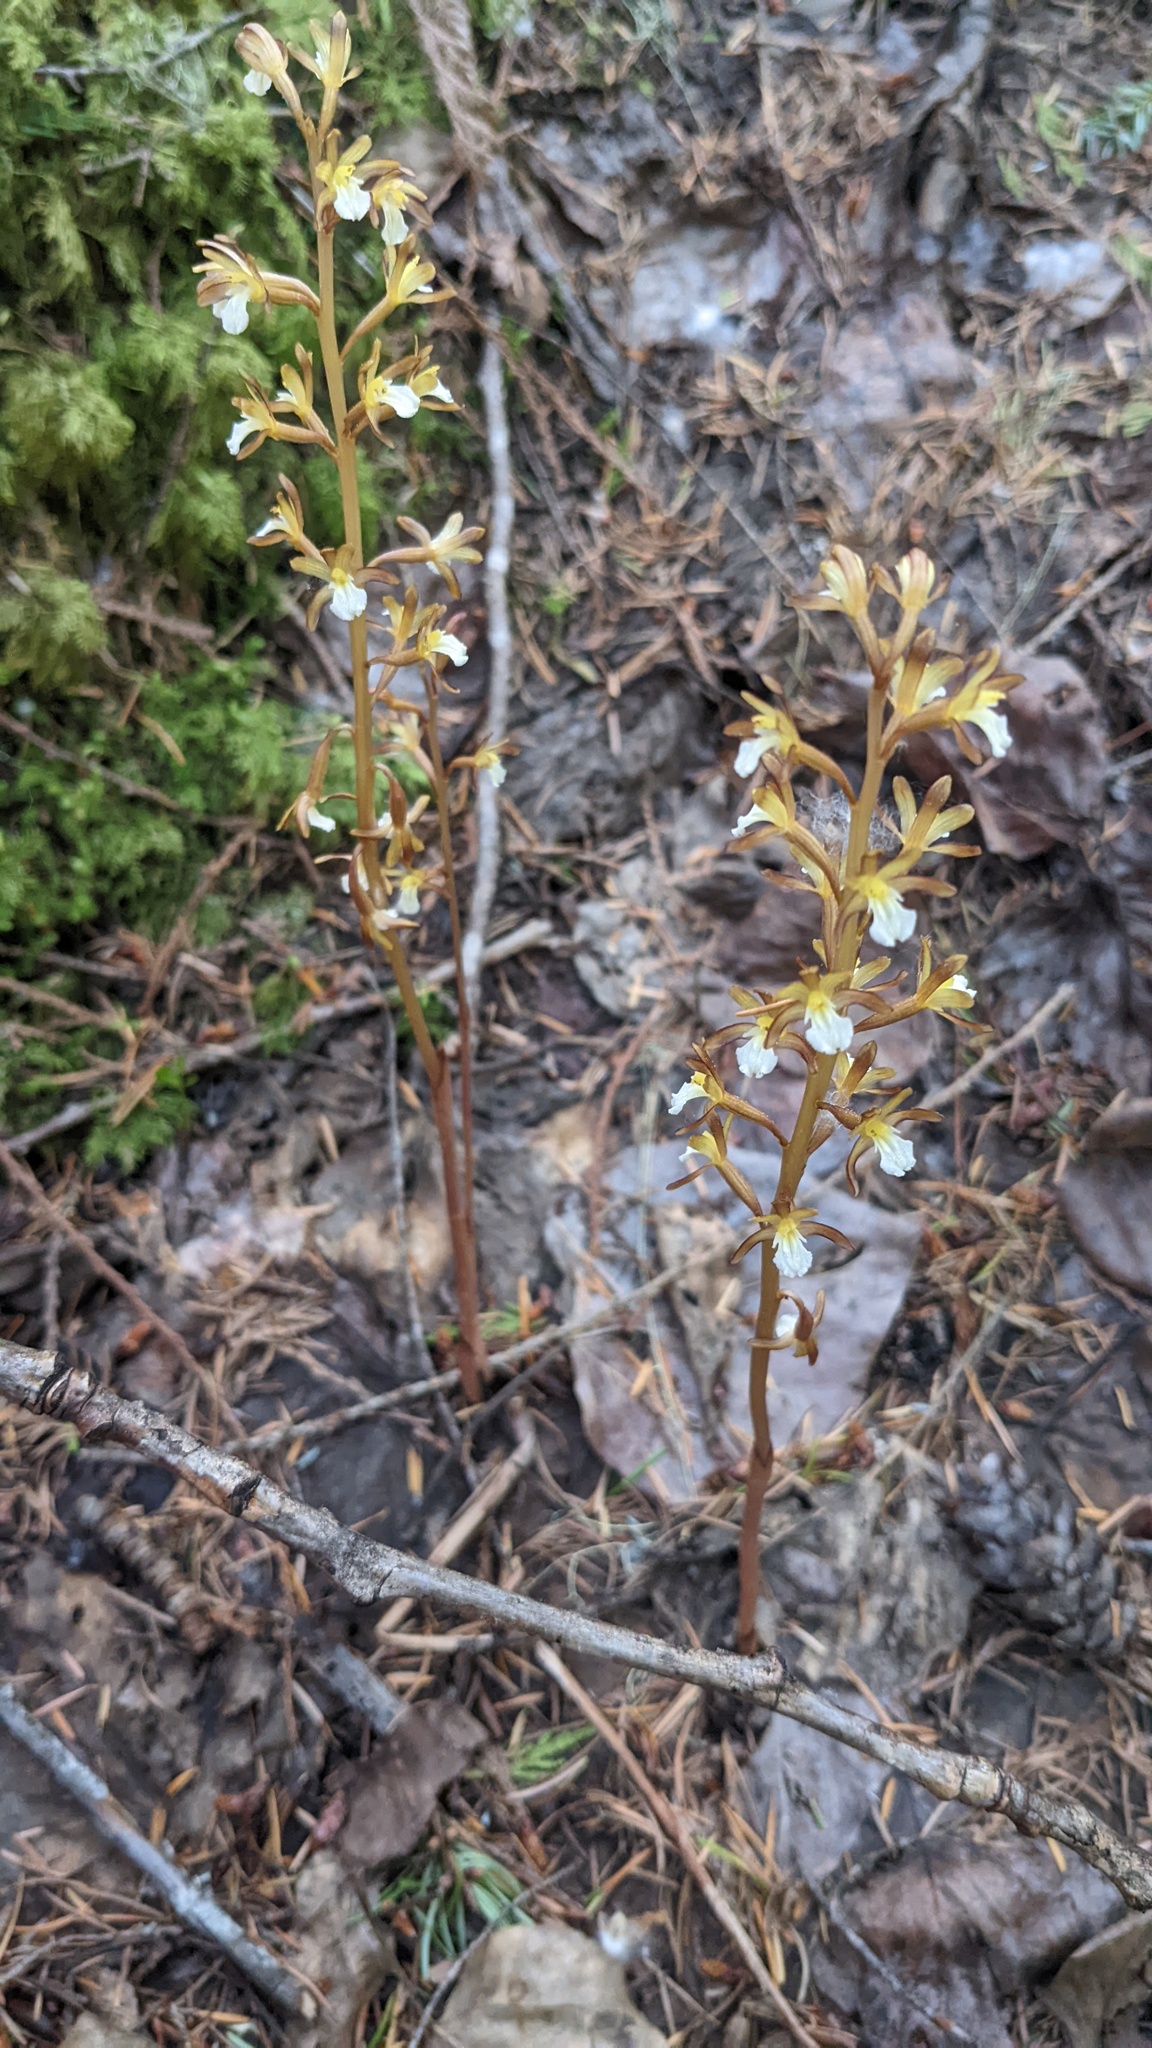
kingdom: Plantae
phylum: Tracheophyta
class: Liliopsida
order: Asparagales
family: Orchidaceae
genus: Corallorhiza
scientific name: Corallorhiza maculata
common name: Spotted coralroot
